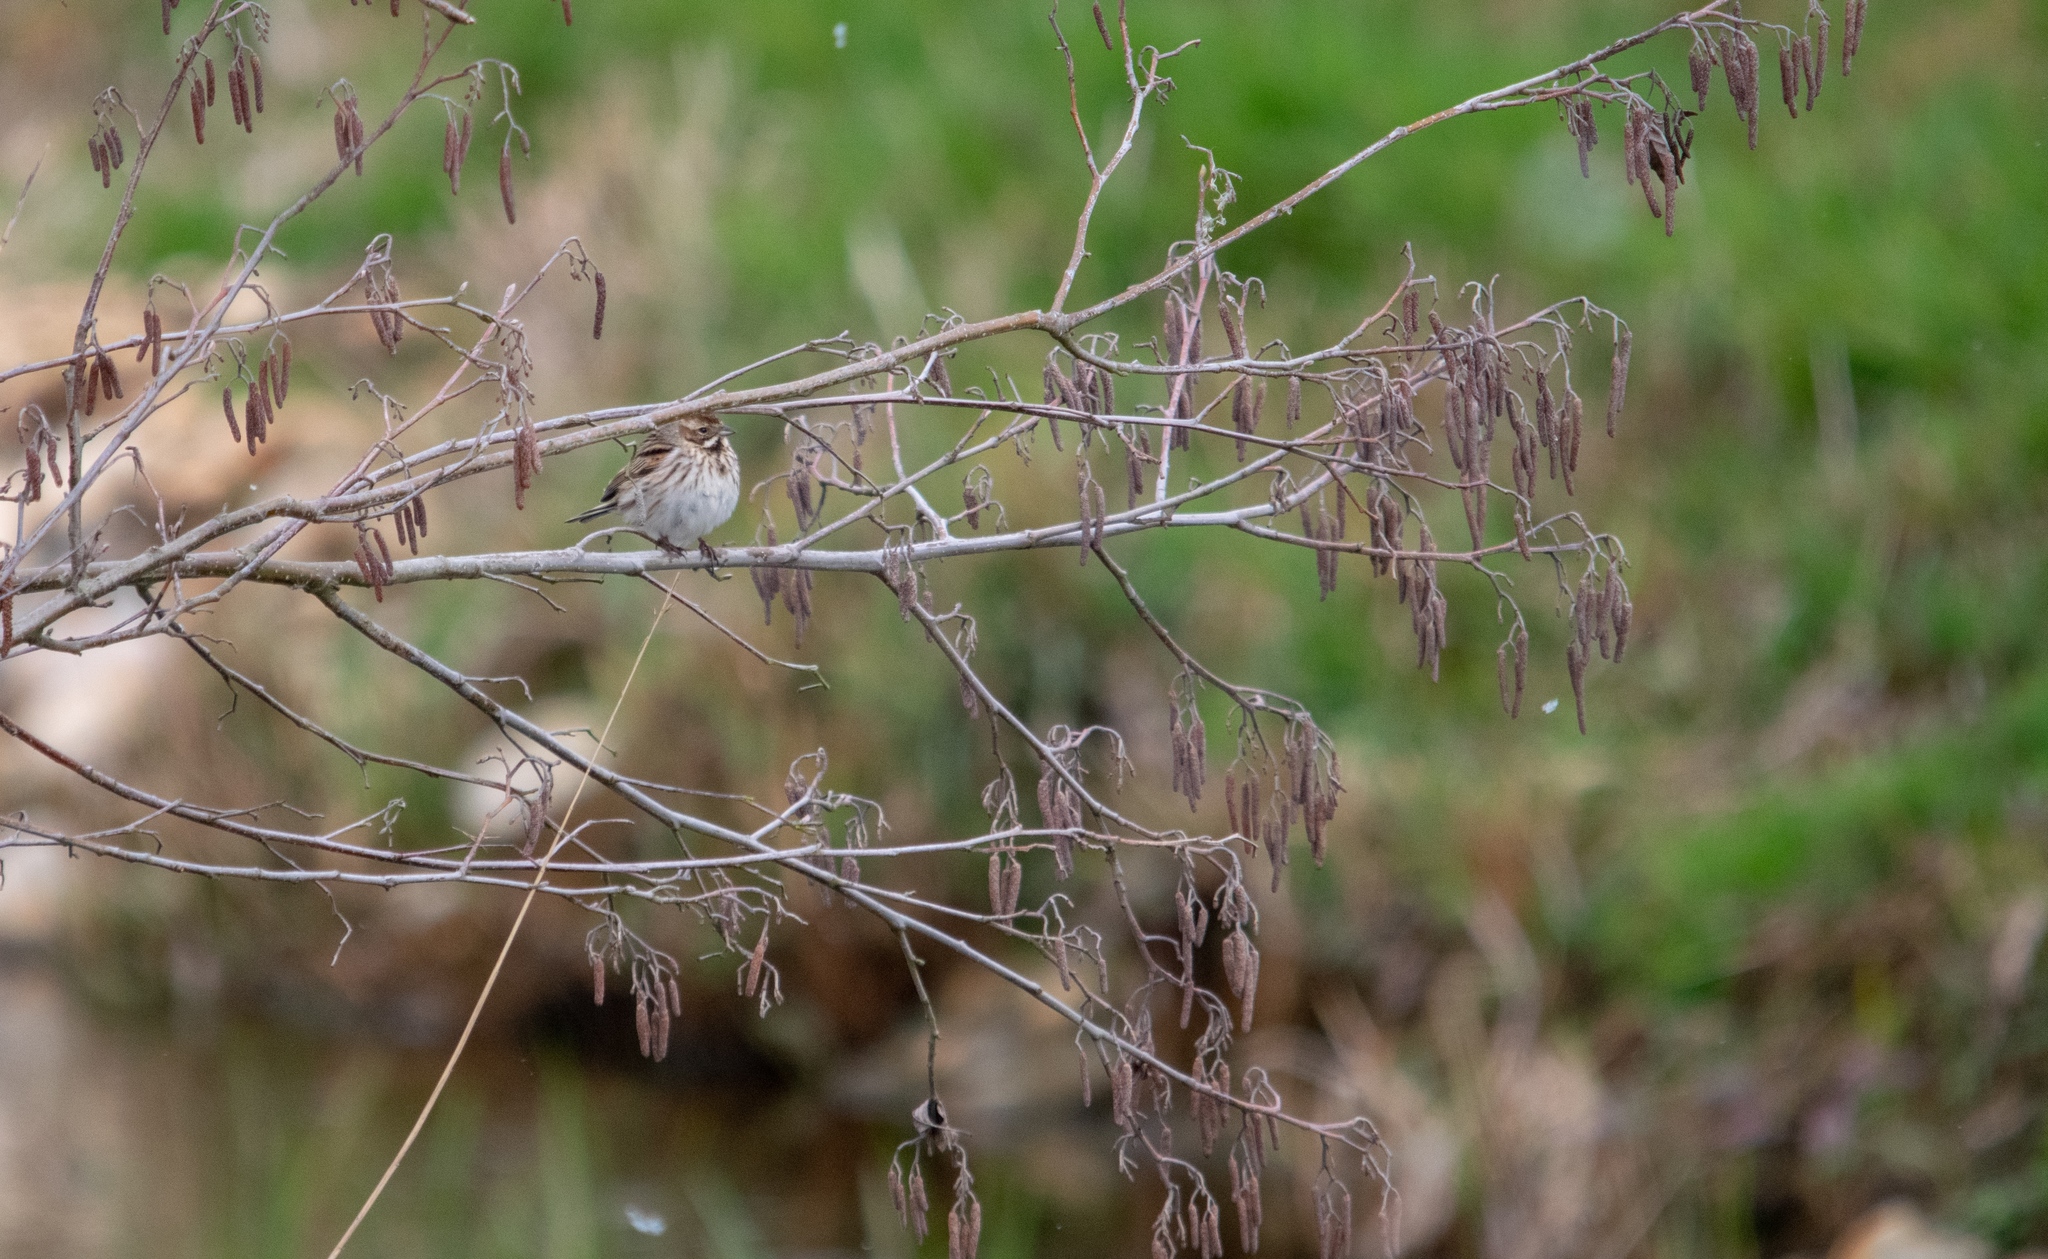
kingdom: Animalia
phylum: Chordata
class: Aves
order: Passeriformes
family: Emberizidae
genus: Emberiza
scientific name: Emberiza schoeniclus
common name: Reed bunting
